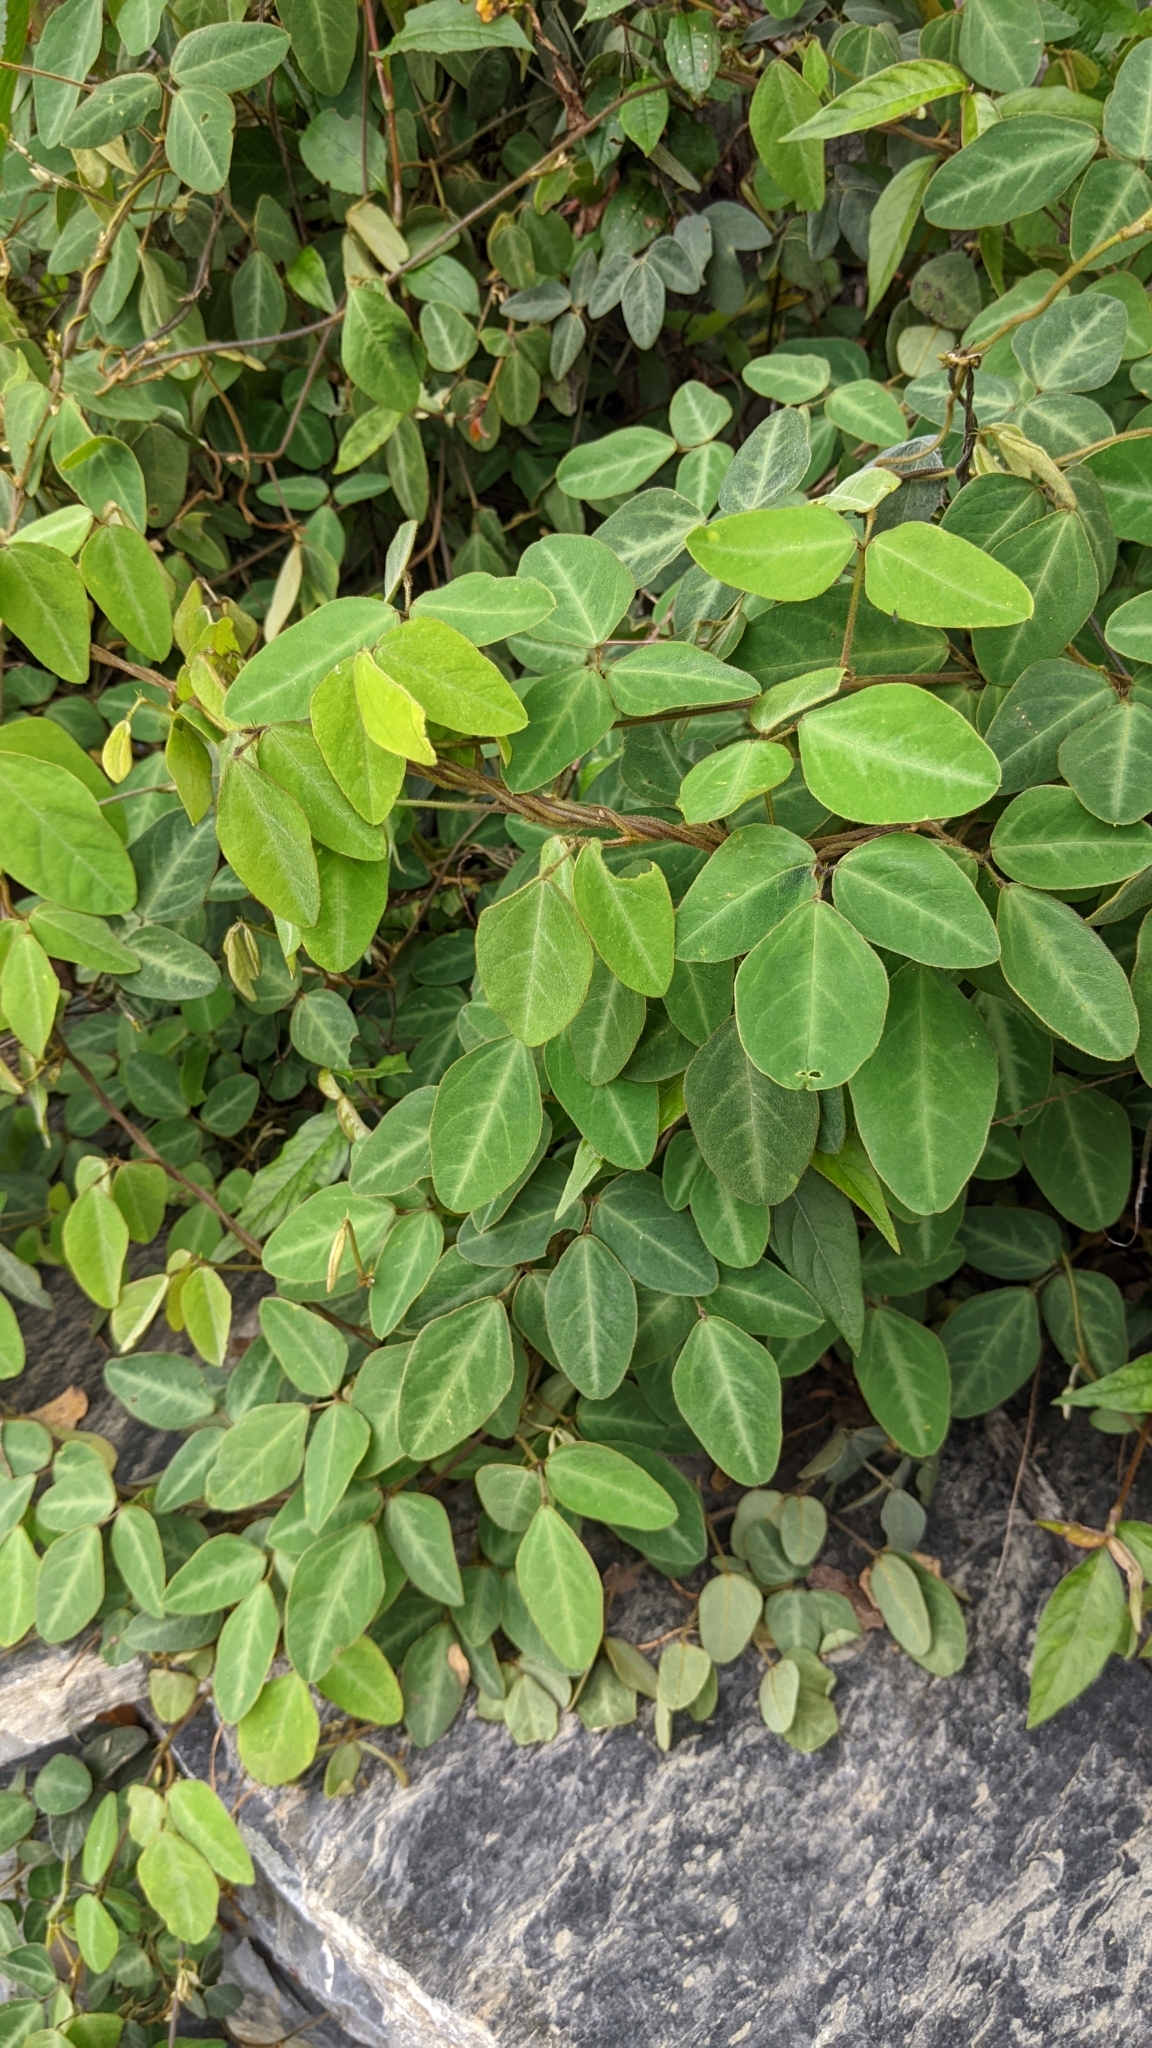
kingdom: Plantae
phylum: Tracheophyta
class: Magnoliopsida
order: Fabales
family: Fabaceae
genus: Dumasia
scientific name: Dumasia villosa
